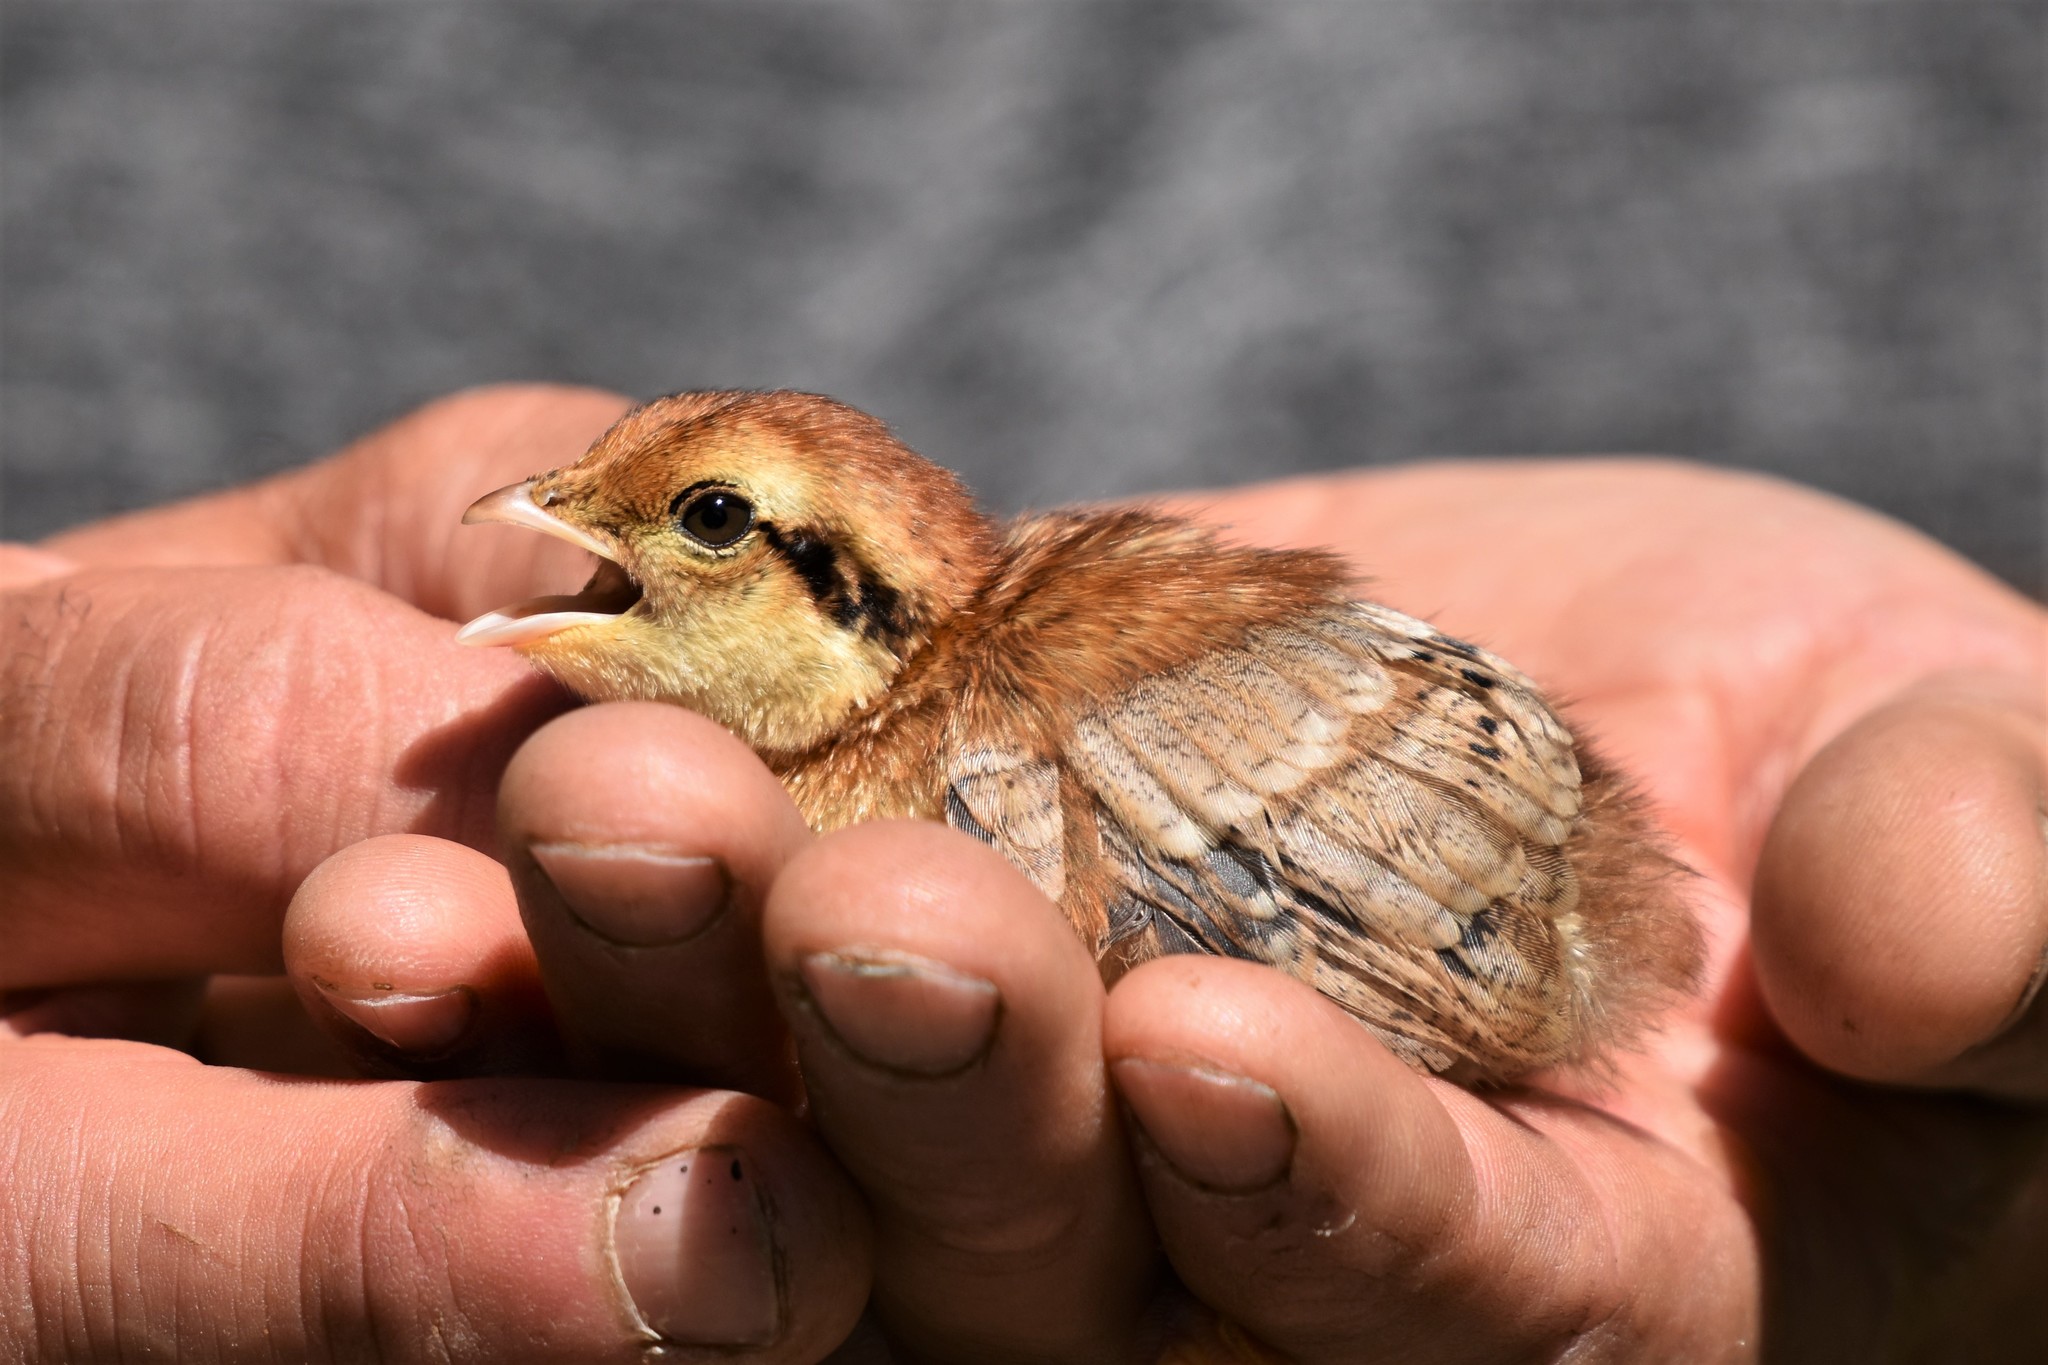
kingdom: Animalia
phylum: Chordata
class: Aves
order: Galliformes
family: Phasianidae
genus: Bonasa
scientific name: Bonasa umbellus
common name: Ruffed grouse
